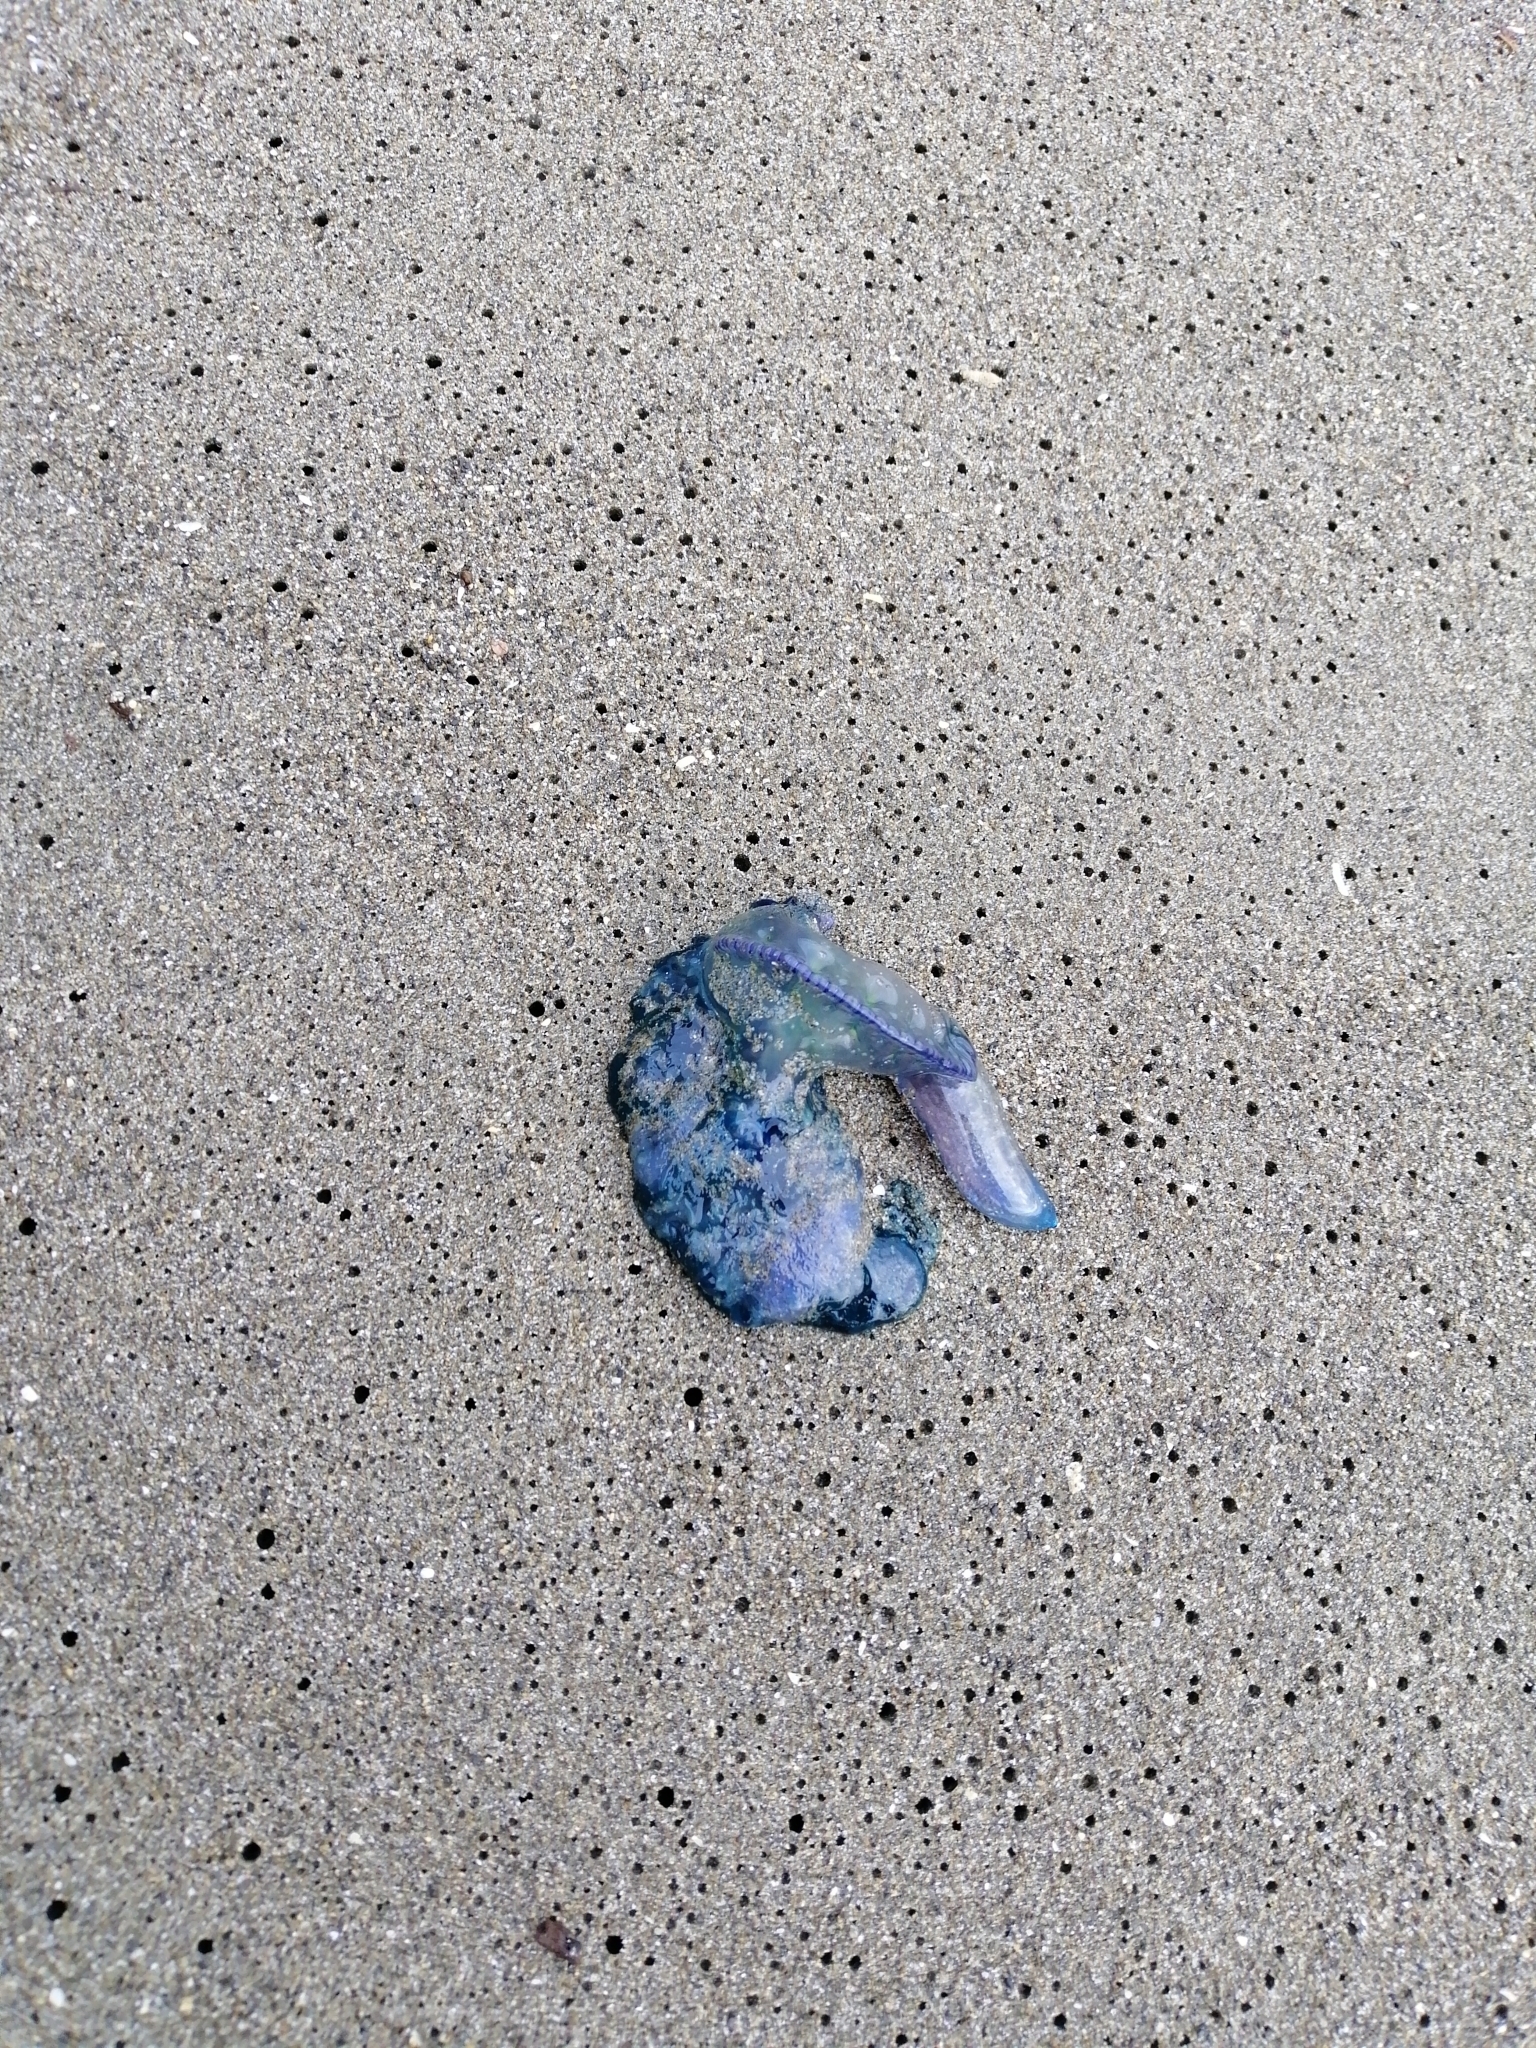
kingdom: Animalia
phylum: Cnidaria
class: Hydrozoa
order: Siphonophorae
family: Physaliidae
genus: Physalia
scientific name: Physalia physalis
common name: Portuguese man-of-war
